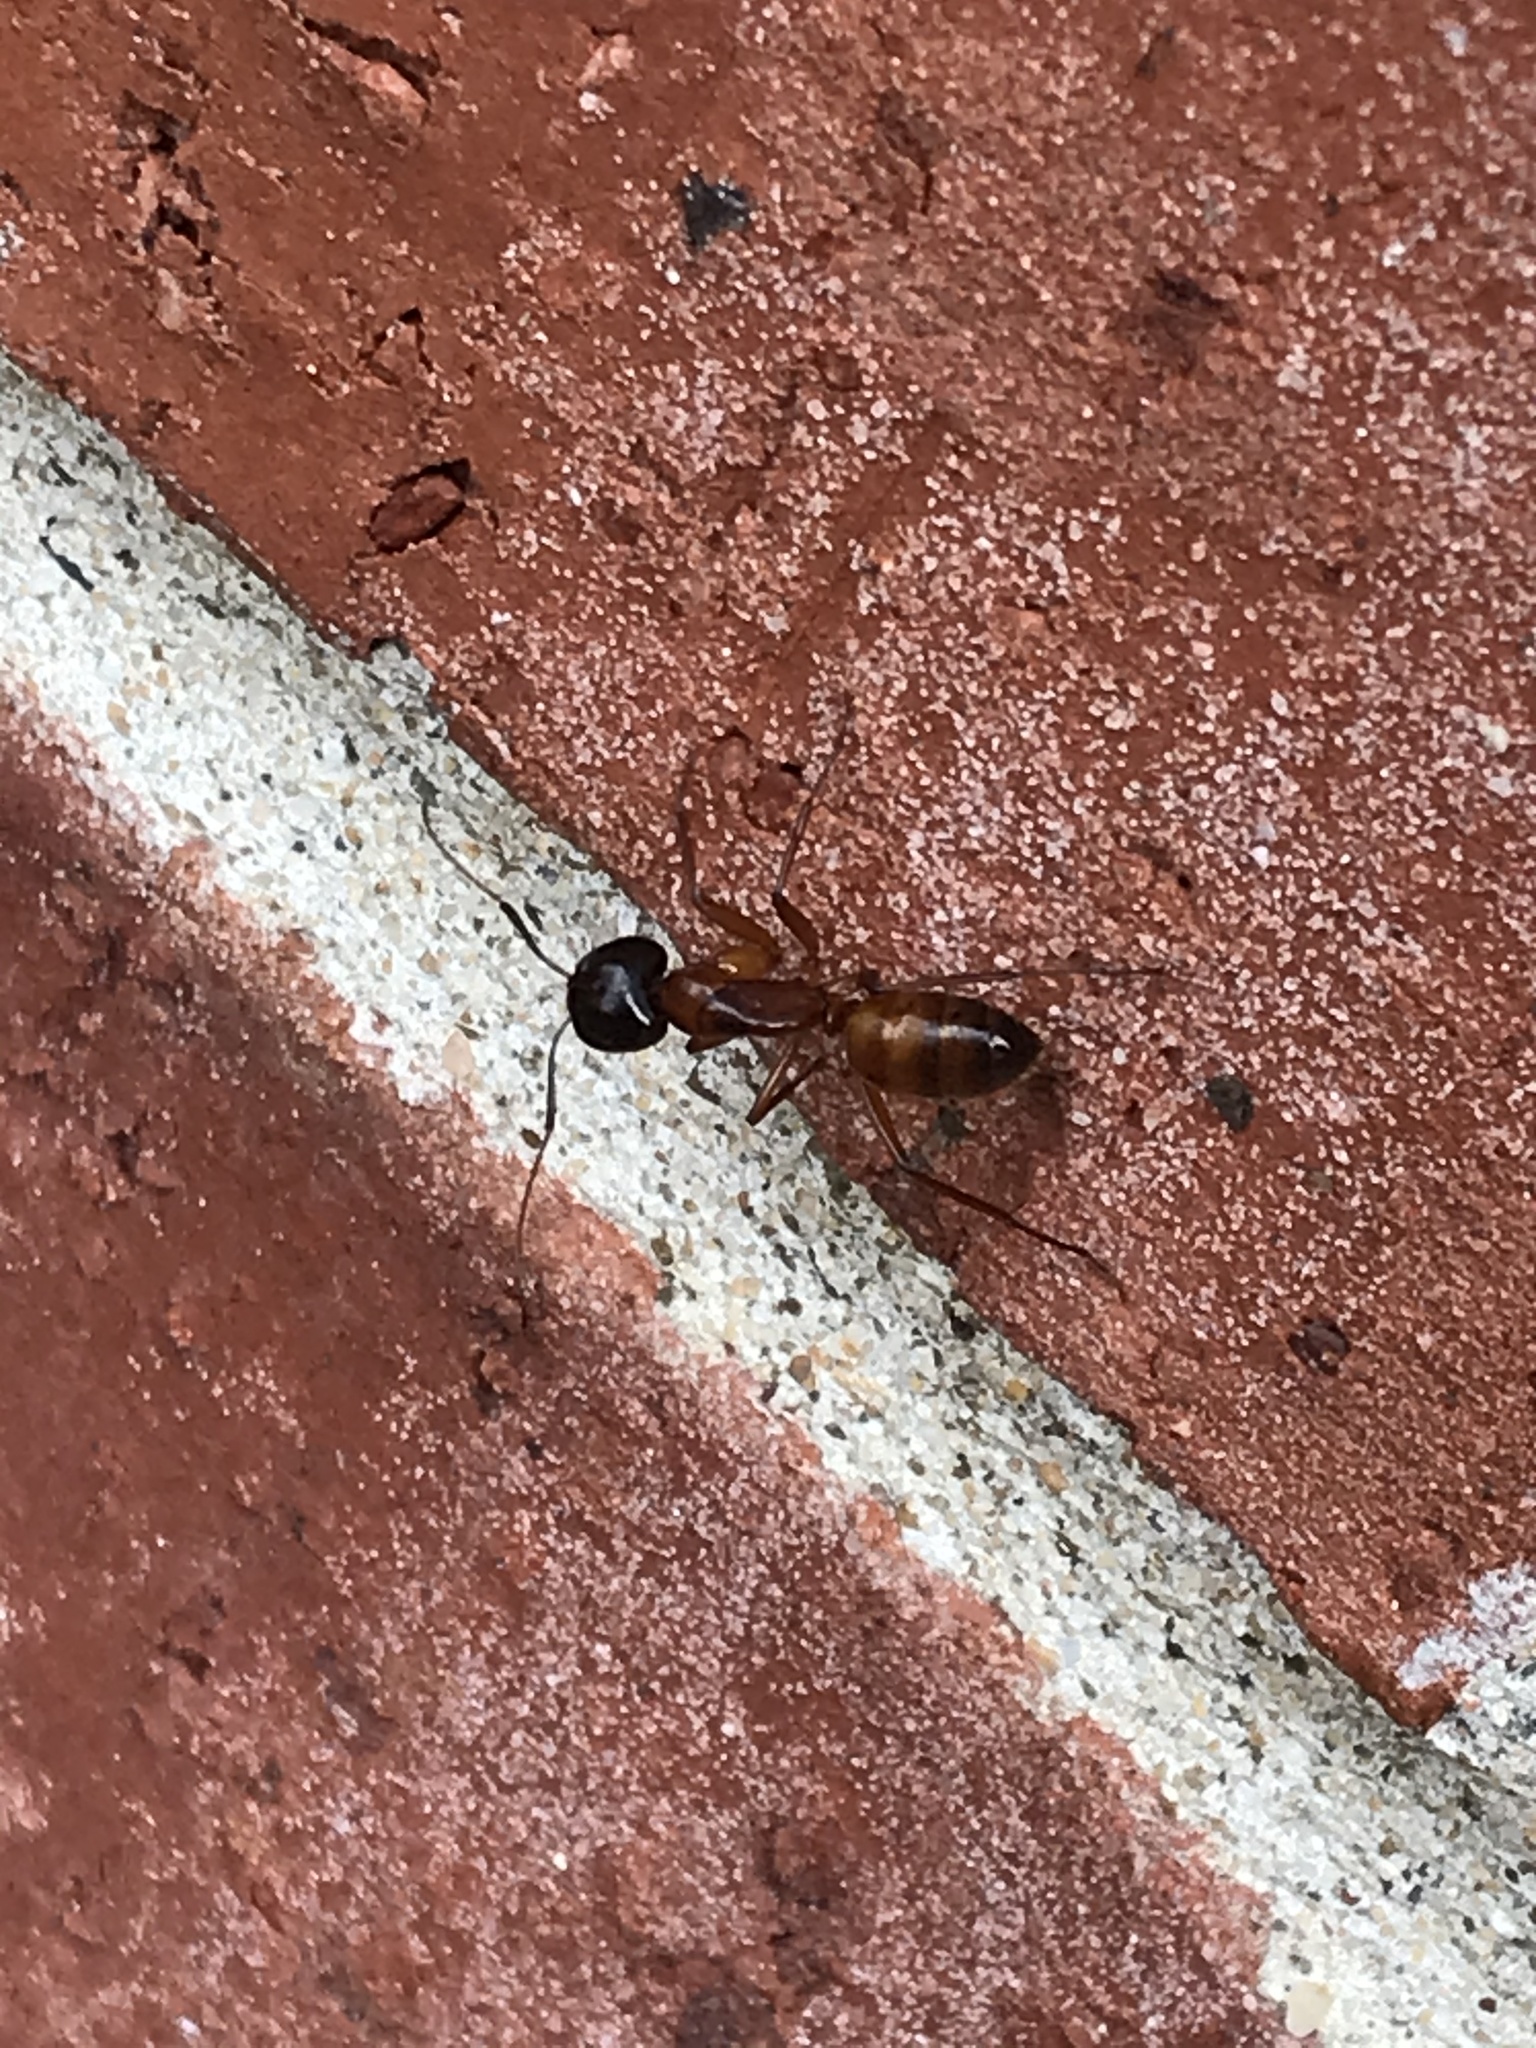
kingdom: Animalia
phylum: Arthropoda
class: Insecta
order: Hymenoptera
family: Formicidae
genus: Camponotus
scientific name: Camponotus americanus
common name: American carpenter ant
